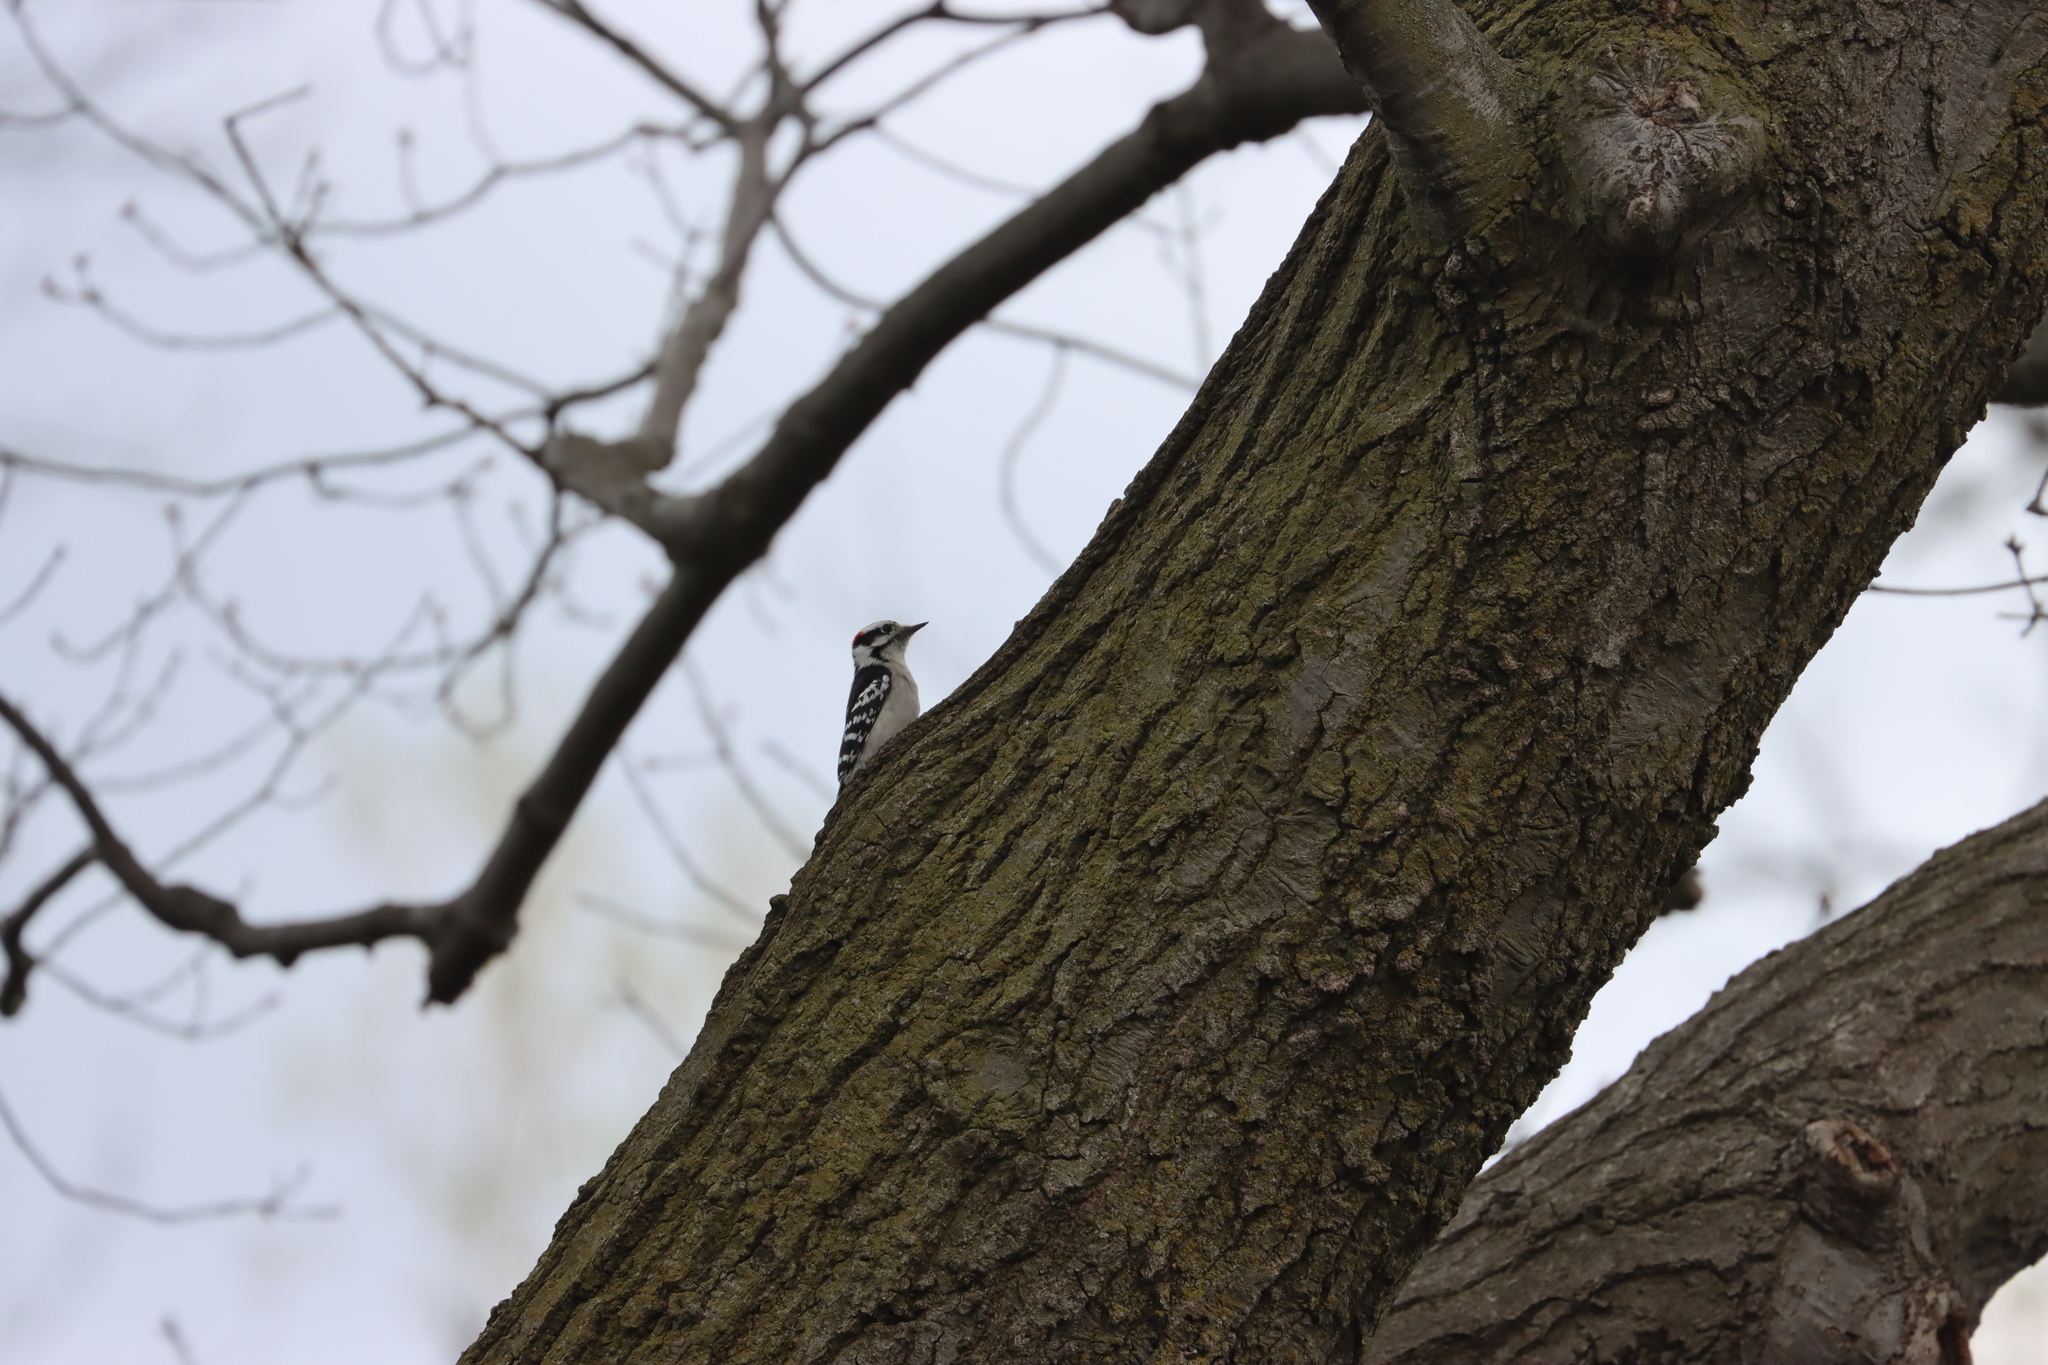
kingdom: Animalia
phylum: Chordata
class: Aves
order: Piciformes
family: Picidae
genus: Dryobates
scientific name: Dryobates pubescens
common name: Downy woodpecker
